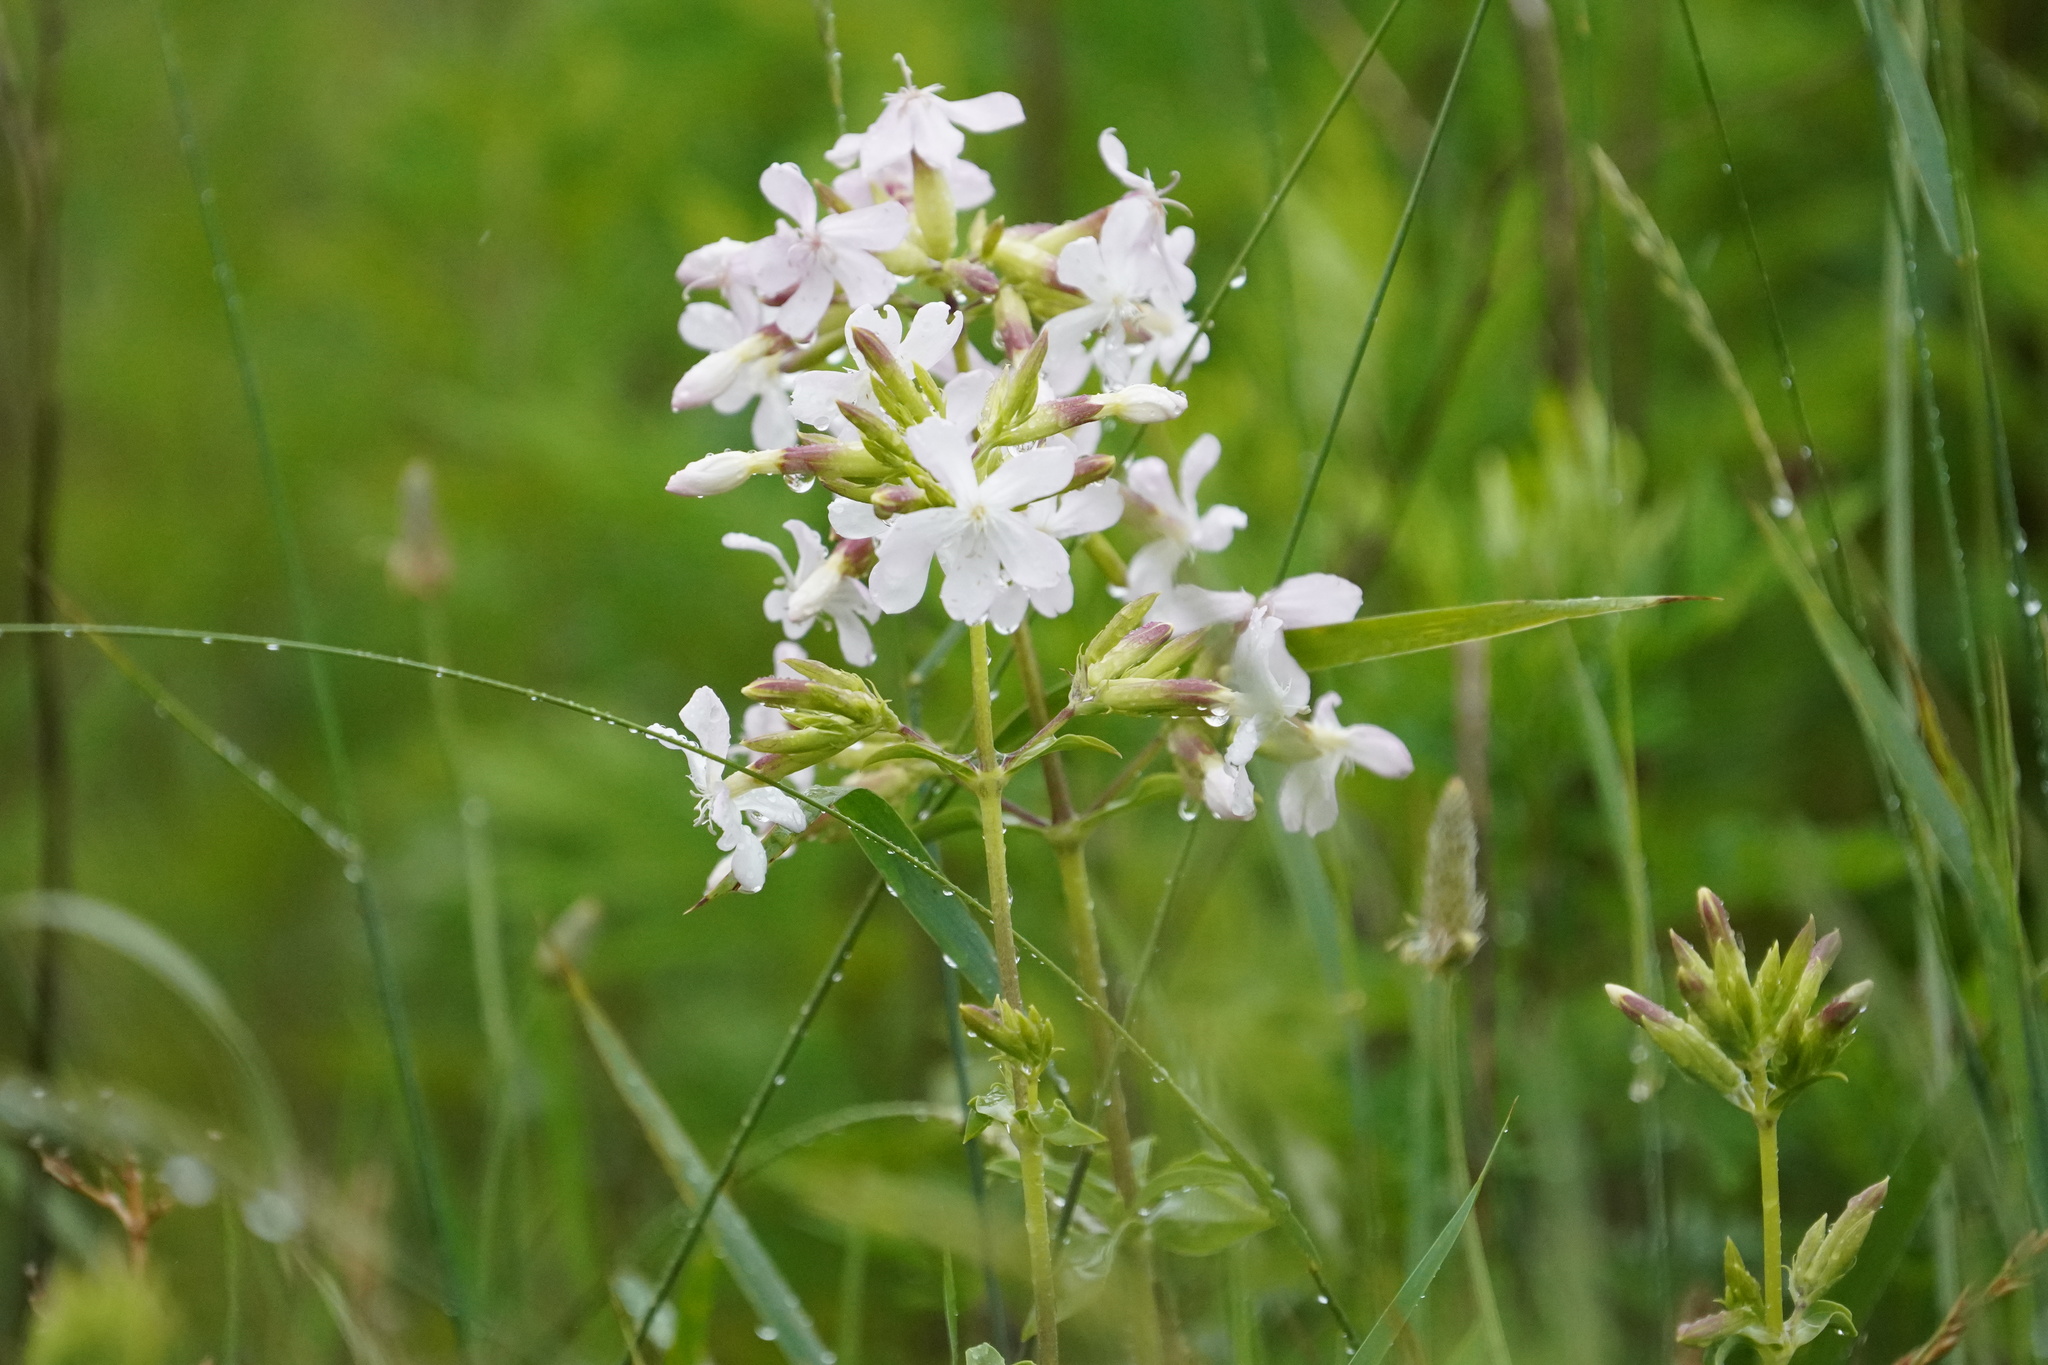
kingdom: Plantae
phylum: Tracheophyta
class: Magnoliopsida
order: Caryophyllales
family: Caryophyllaceae
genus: Saponaria
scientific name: Saponaria officinalis
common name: Soapwort
